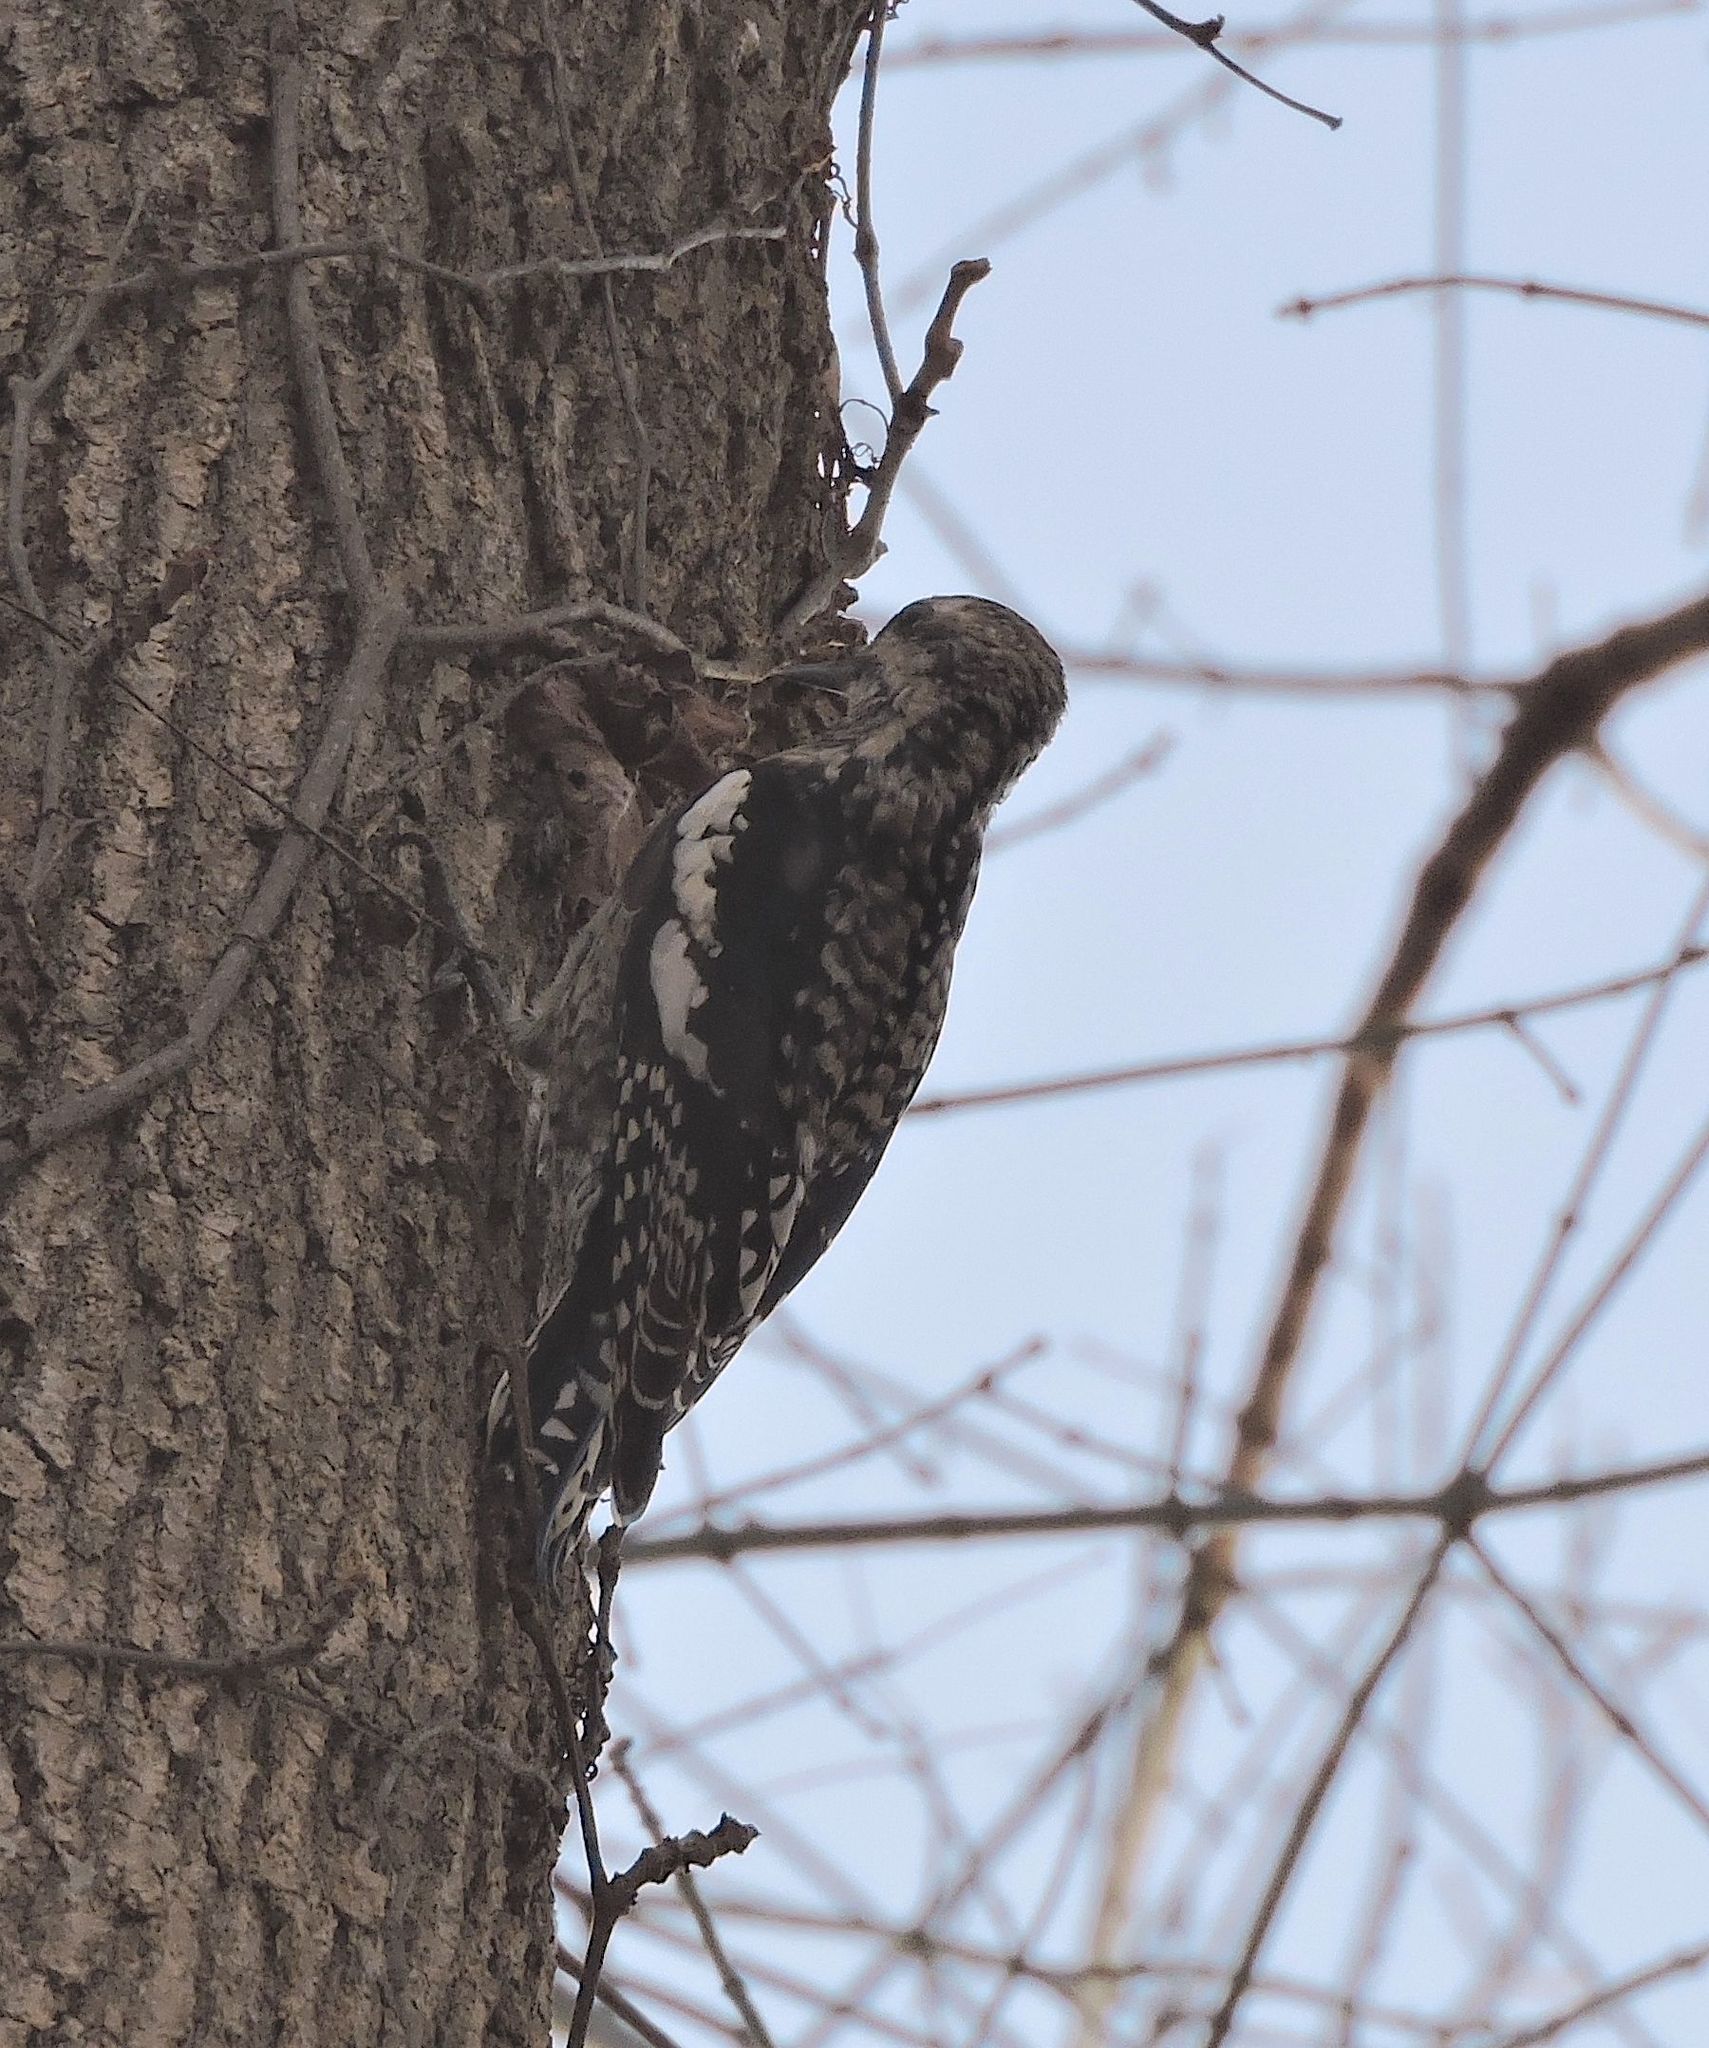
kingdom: Animalia
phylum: Chordata
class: Aves
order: Piciformes
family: Picidae
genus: Sphyrapicus
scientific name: Sphyrapicus varius
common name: Yellow-bellied sapsucker
